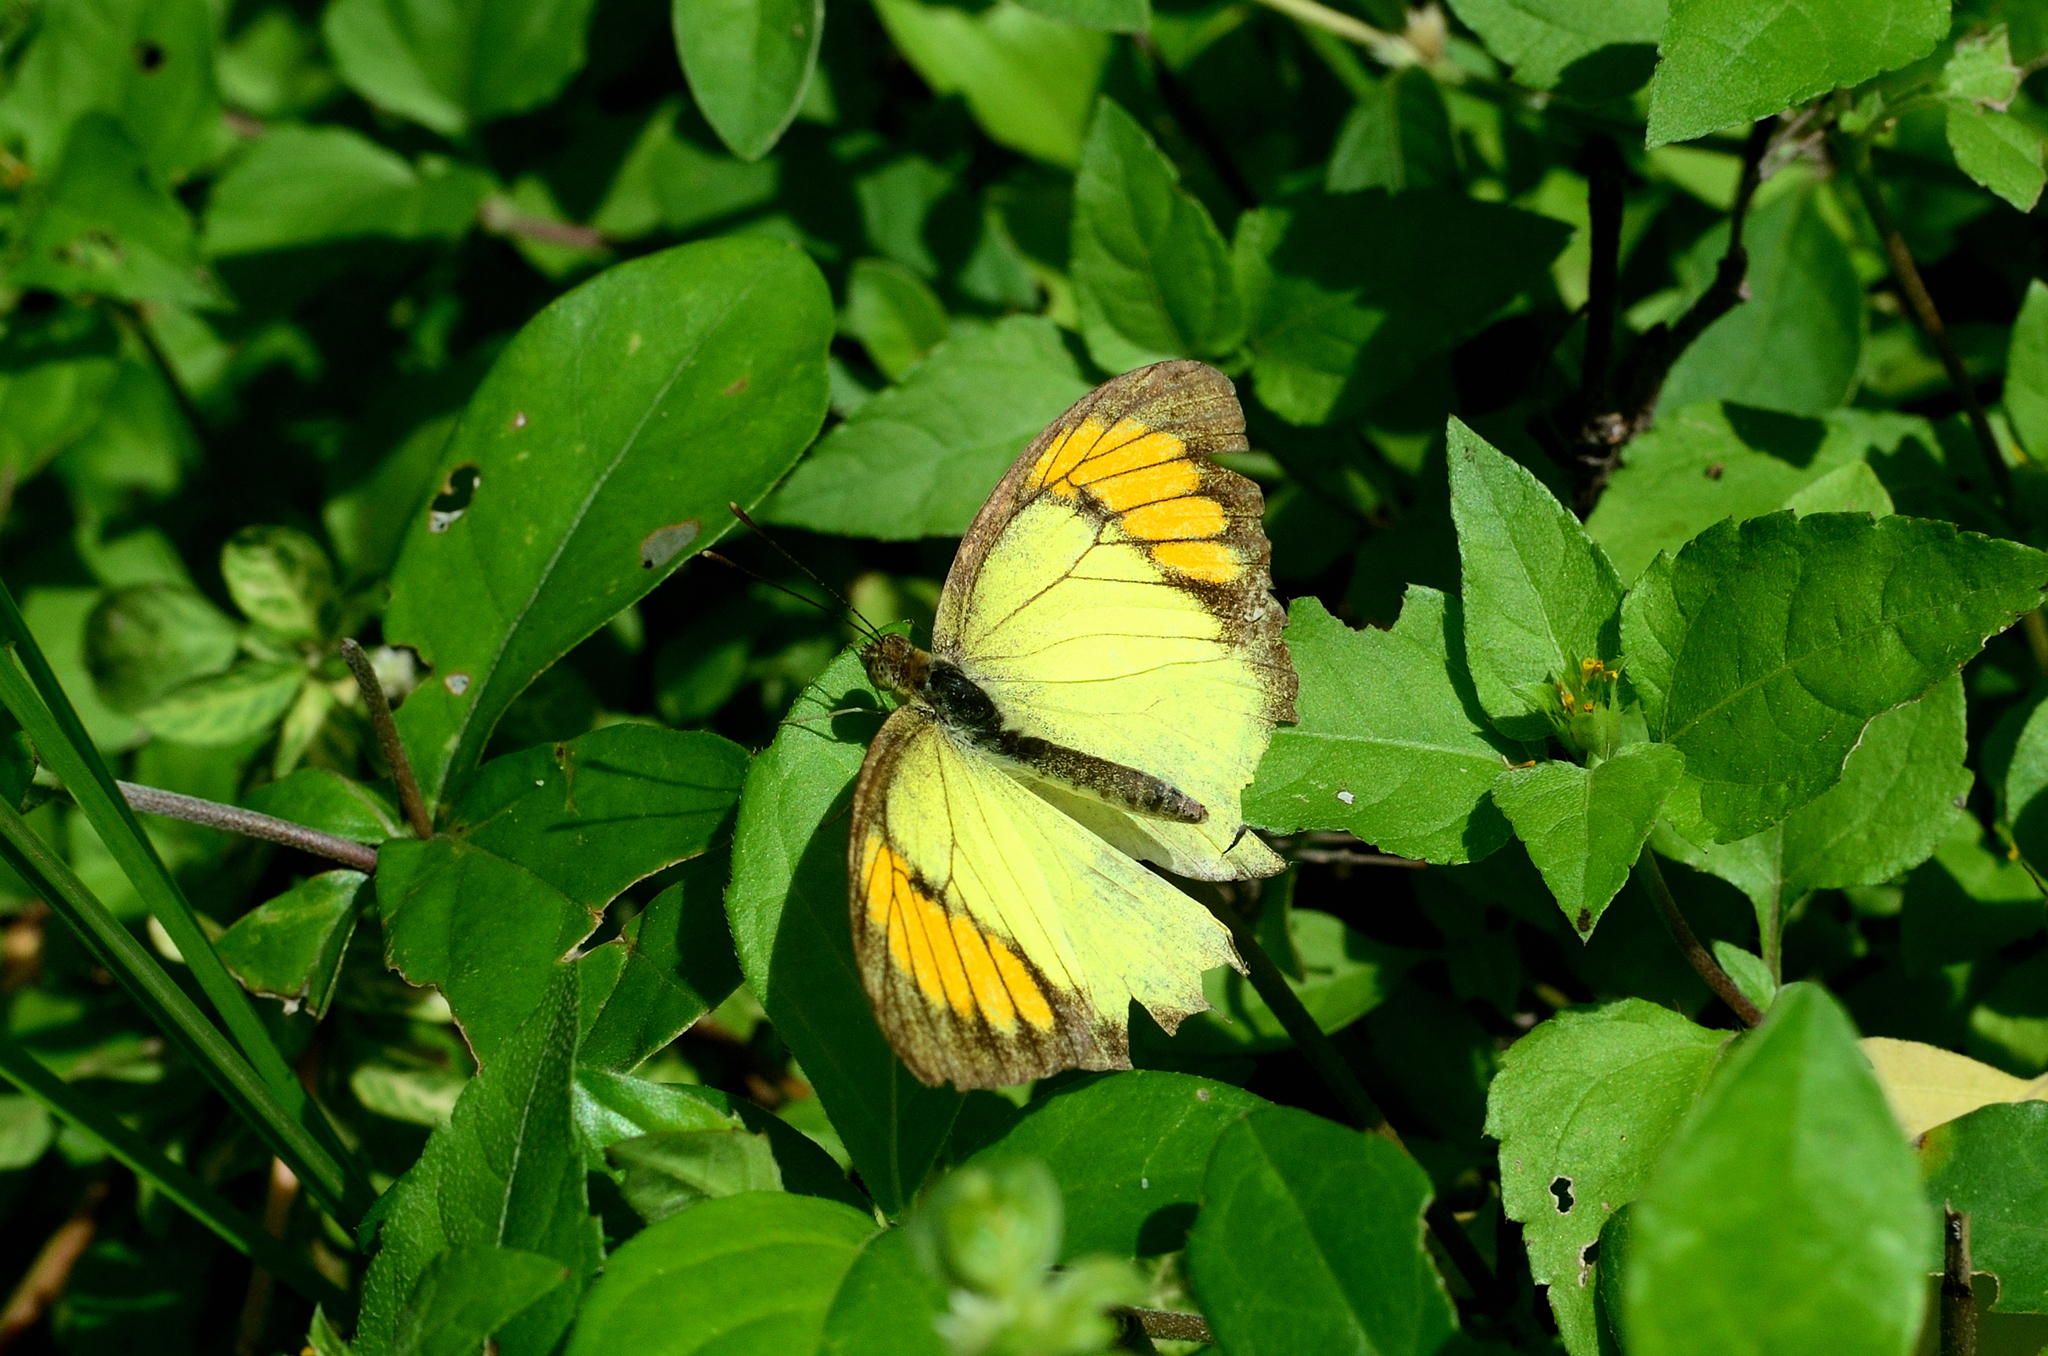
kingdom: Animalia
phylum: Arthropoda
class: Insecta
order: Lepidoptera
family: Pieridae
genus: Ixias
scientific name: Ixias pyrene
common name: Yellow orange tip
